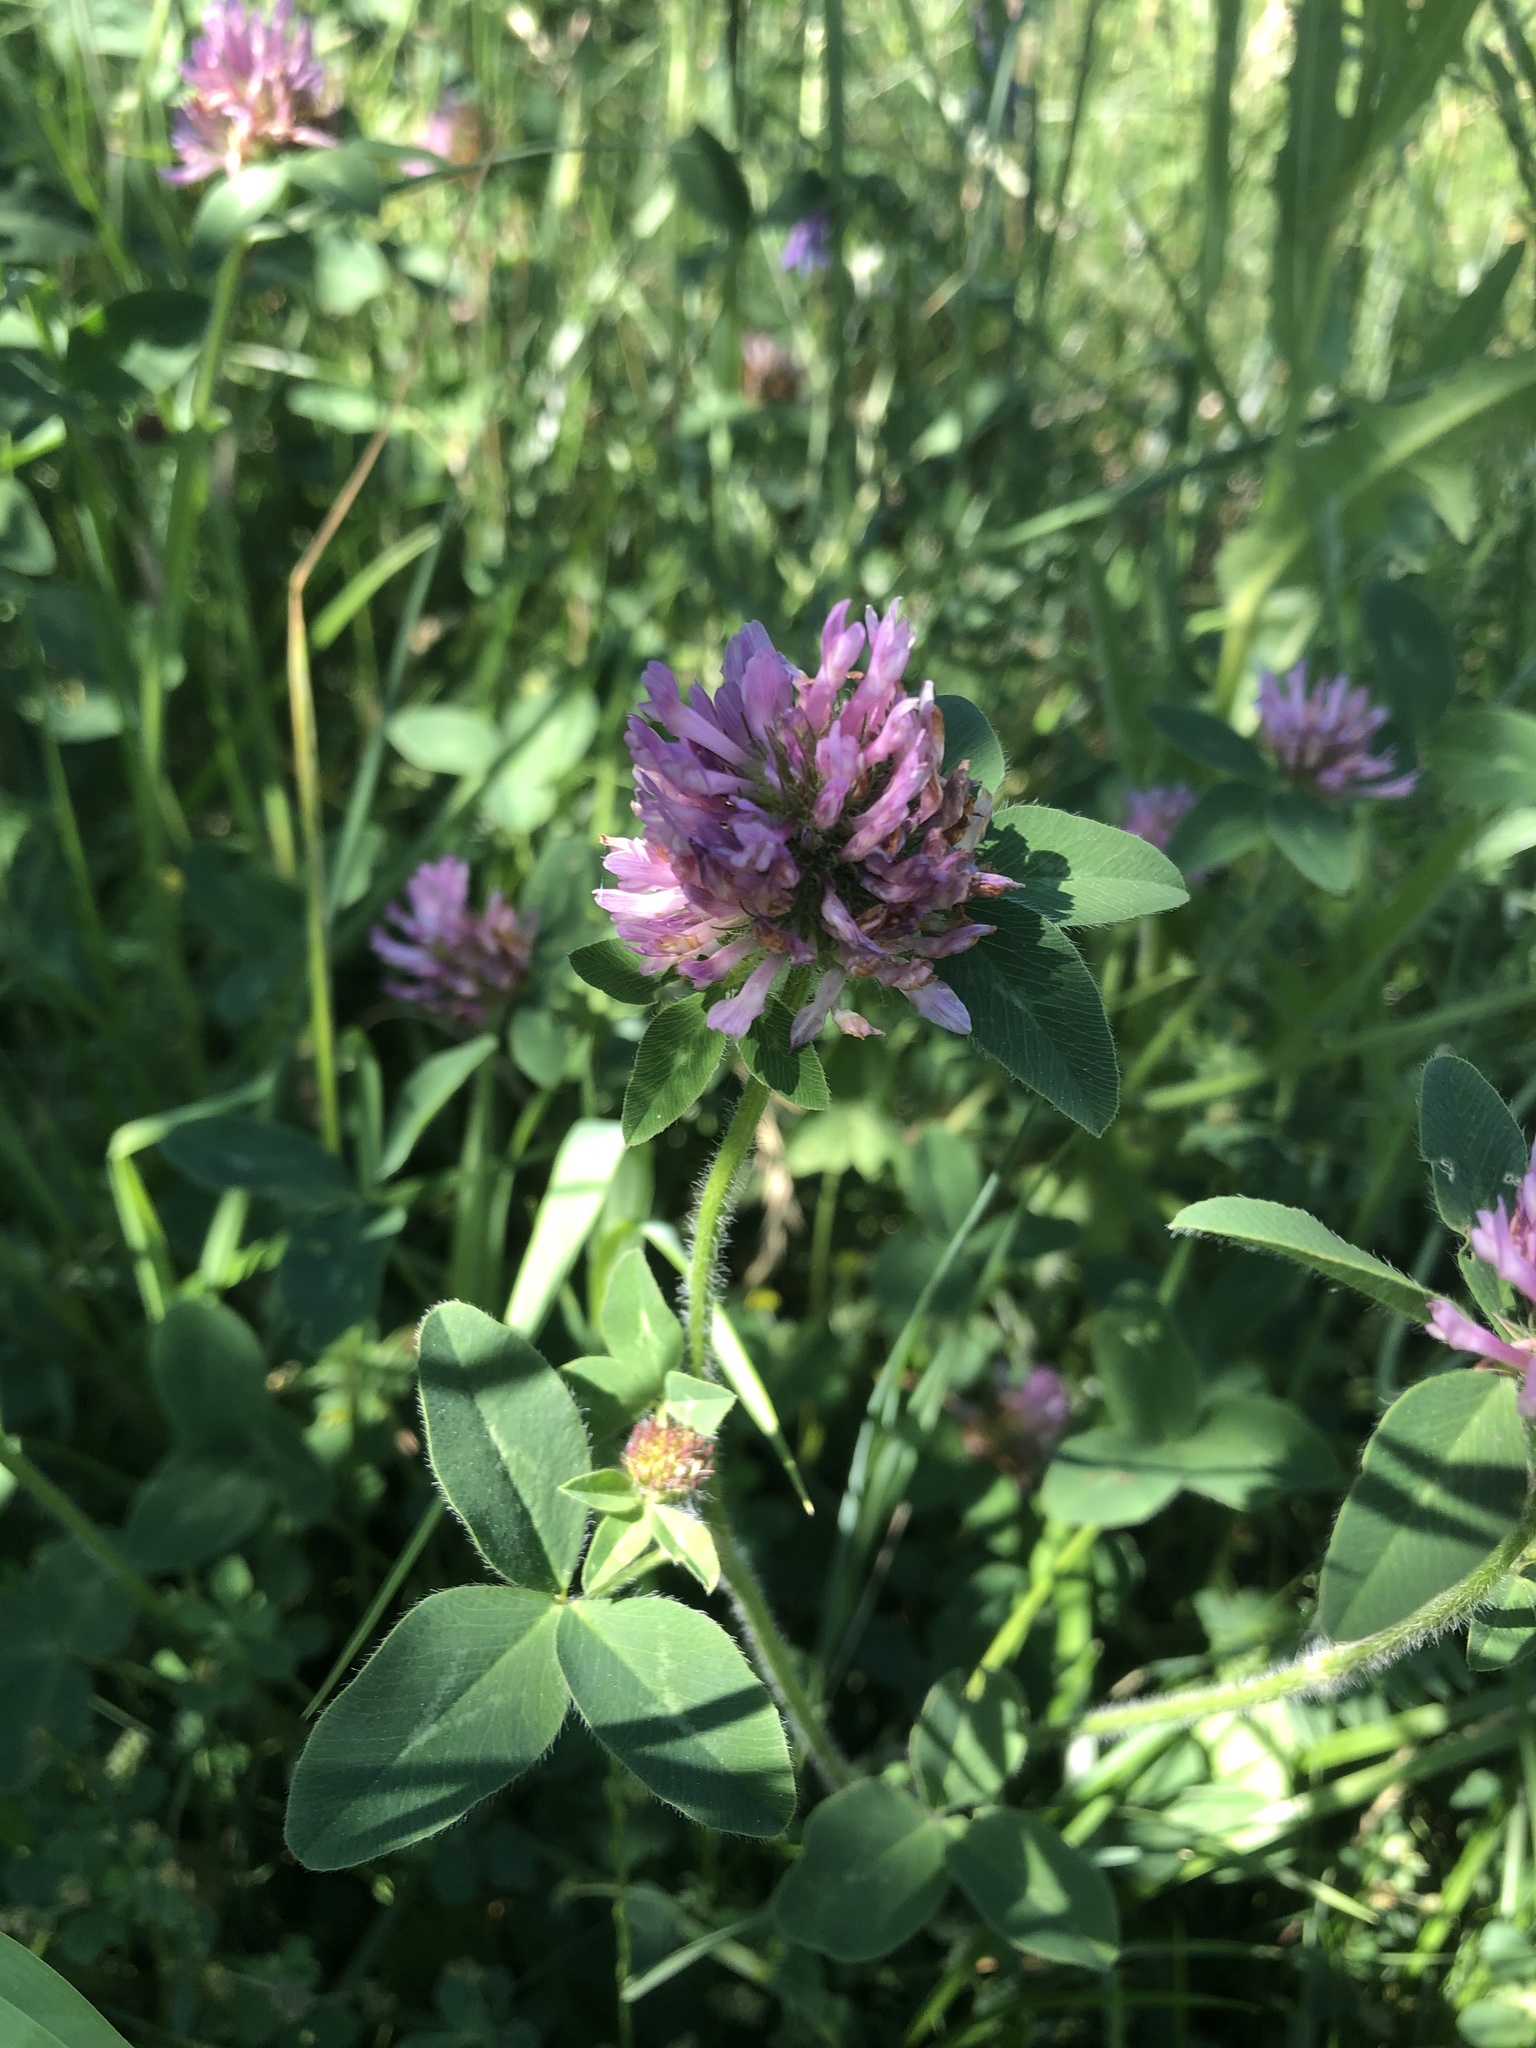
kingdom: Plantae
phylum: Tracheophyta
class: Magnoliopsida
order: Fabales
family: Fabaceae
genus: Trifolium
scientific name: Trifolium pratense
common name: Red clover
